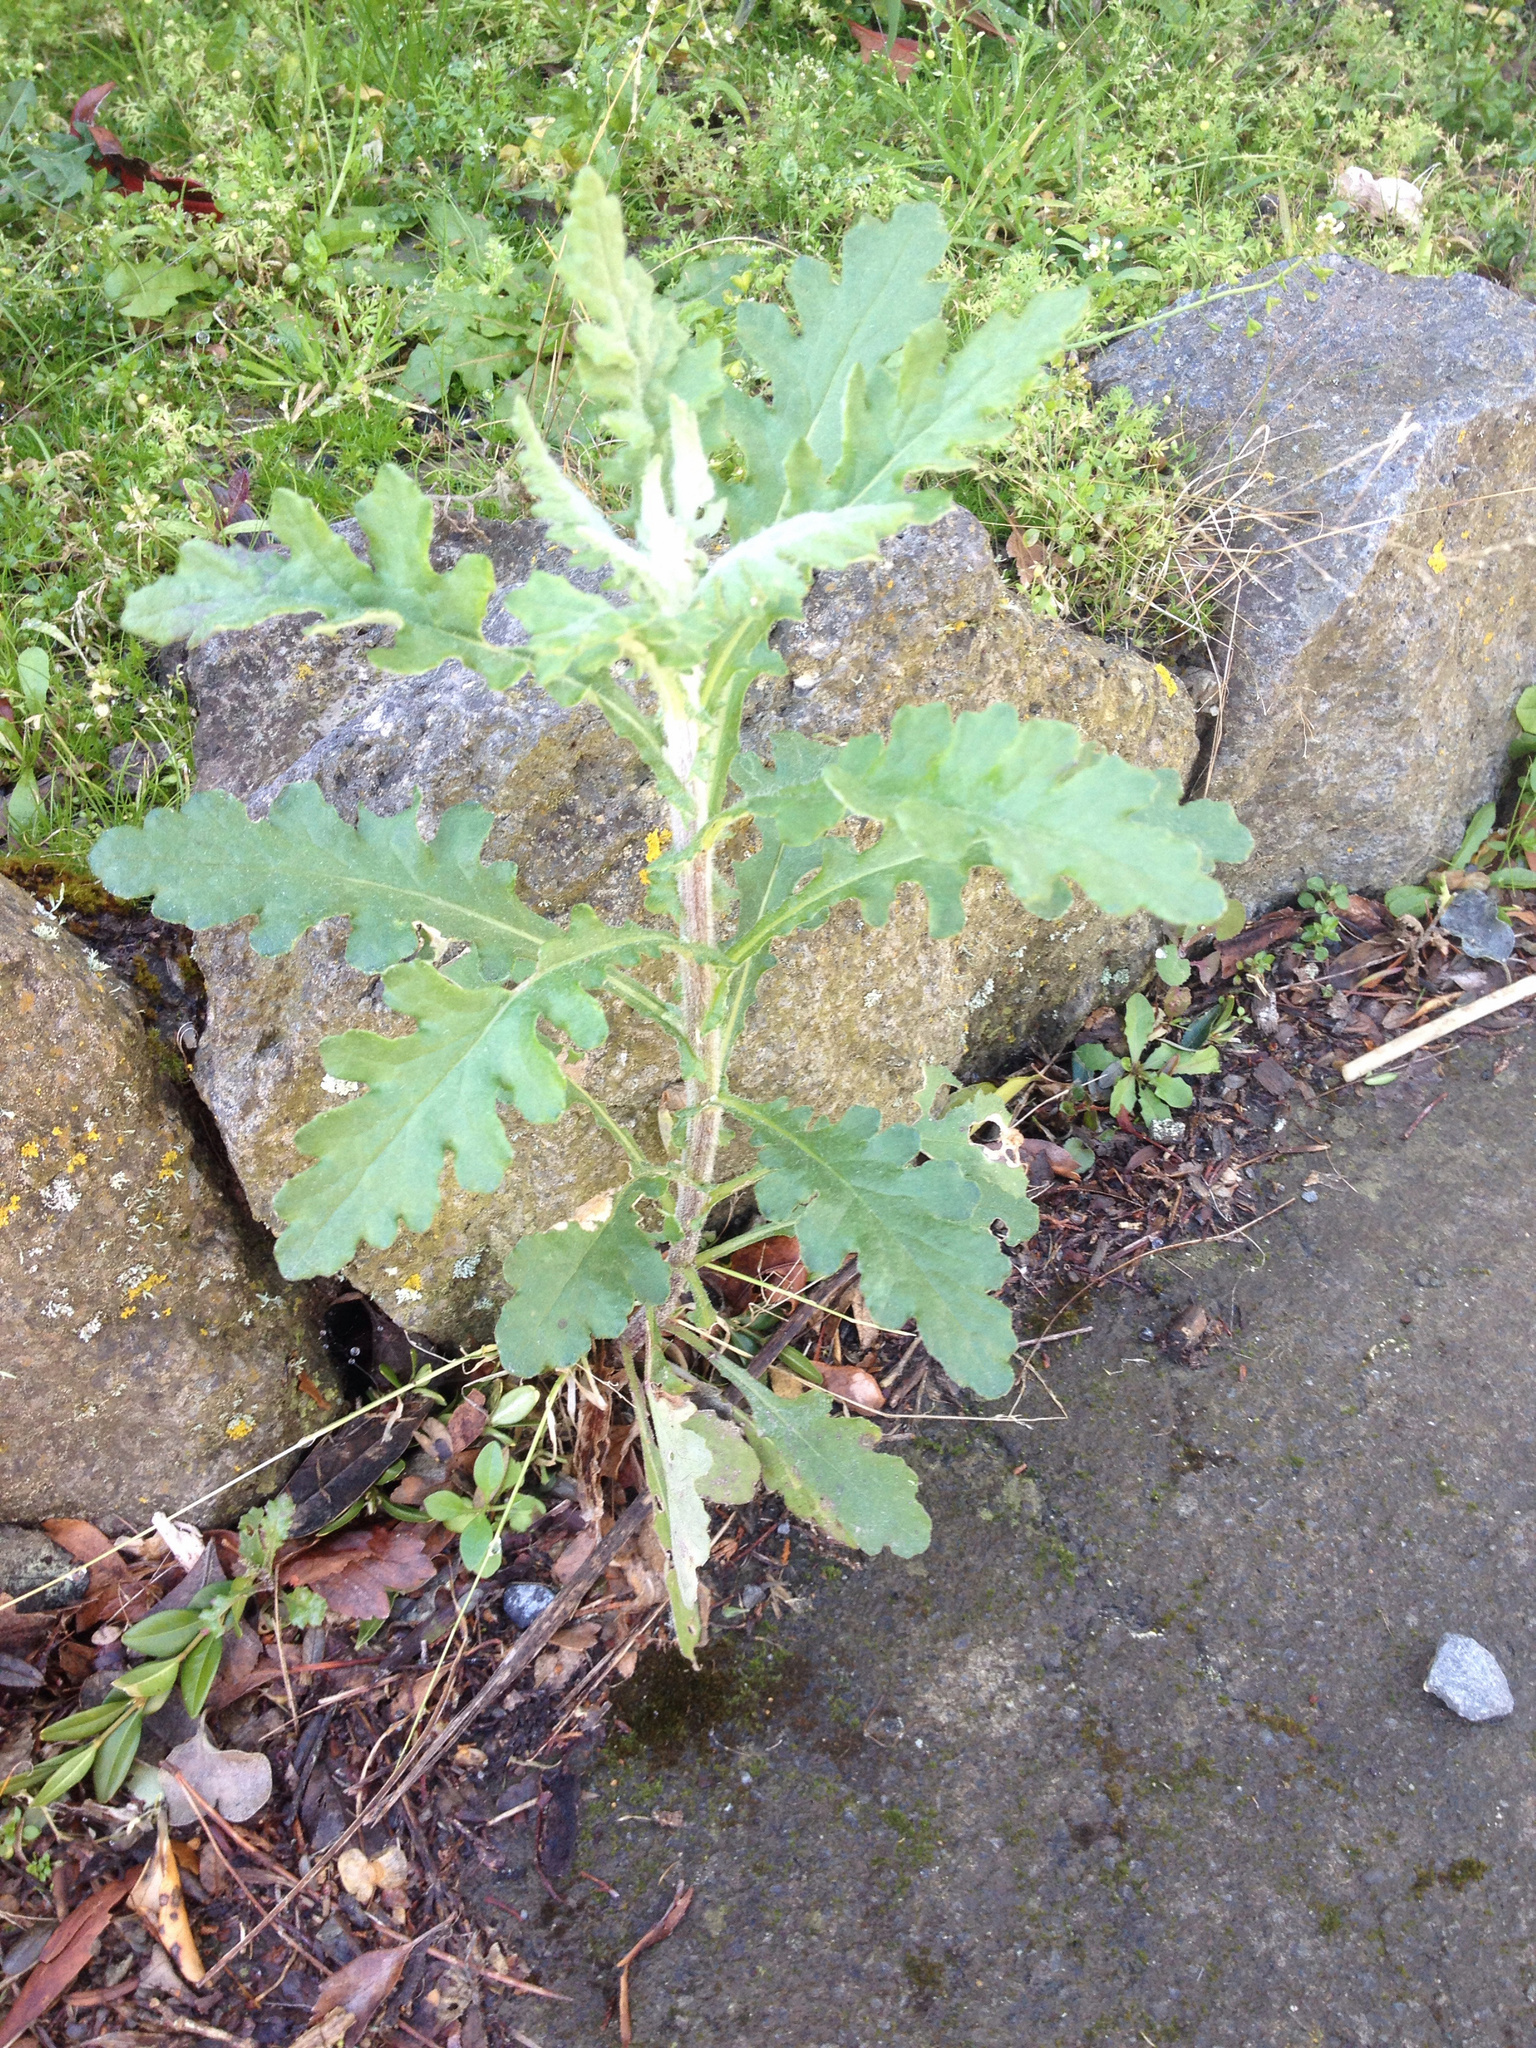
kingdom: Plantae
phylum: Tracheophyta
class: Magnoliopsida
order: Asterales
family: Asteraceae
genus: Senecio
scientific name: Senecio glomeratus
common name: Cutleaf burnweed
